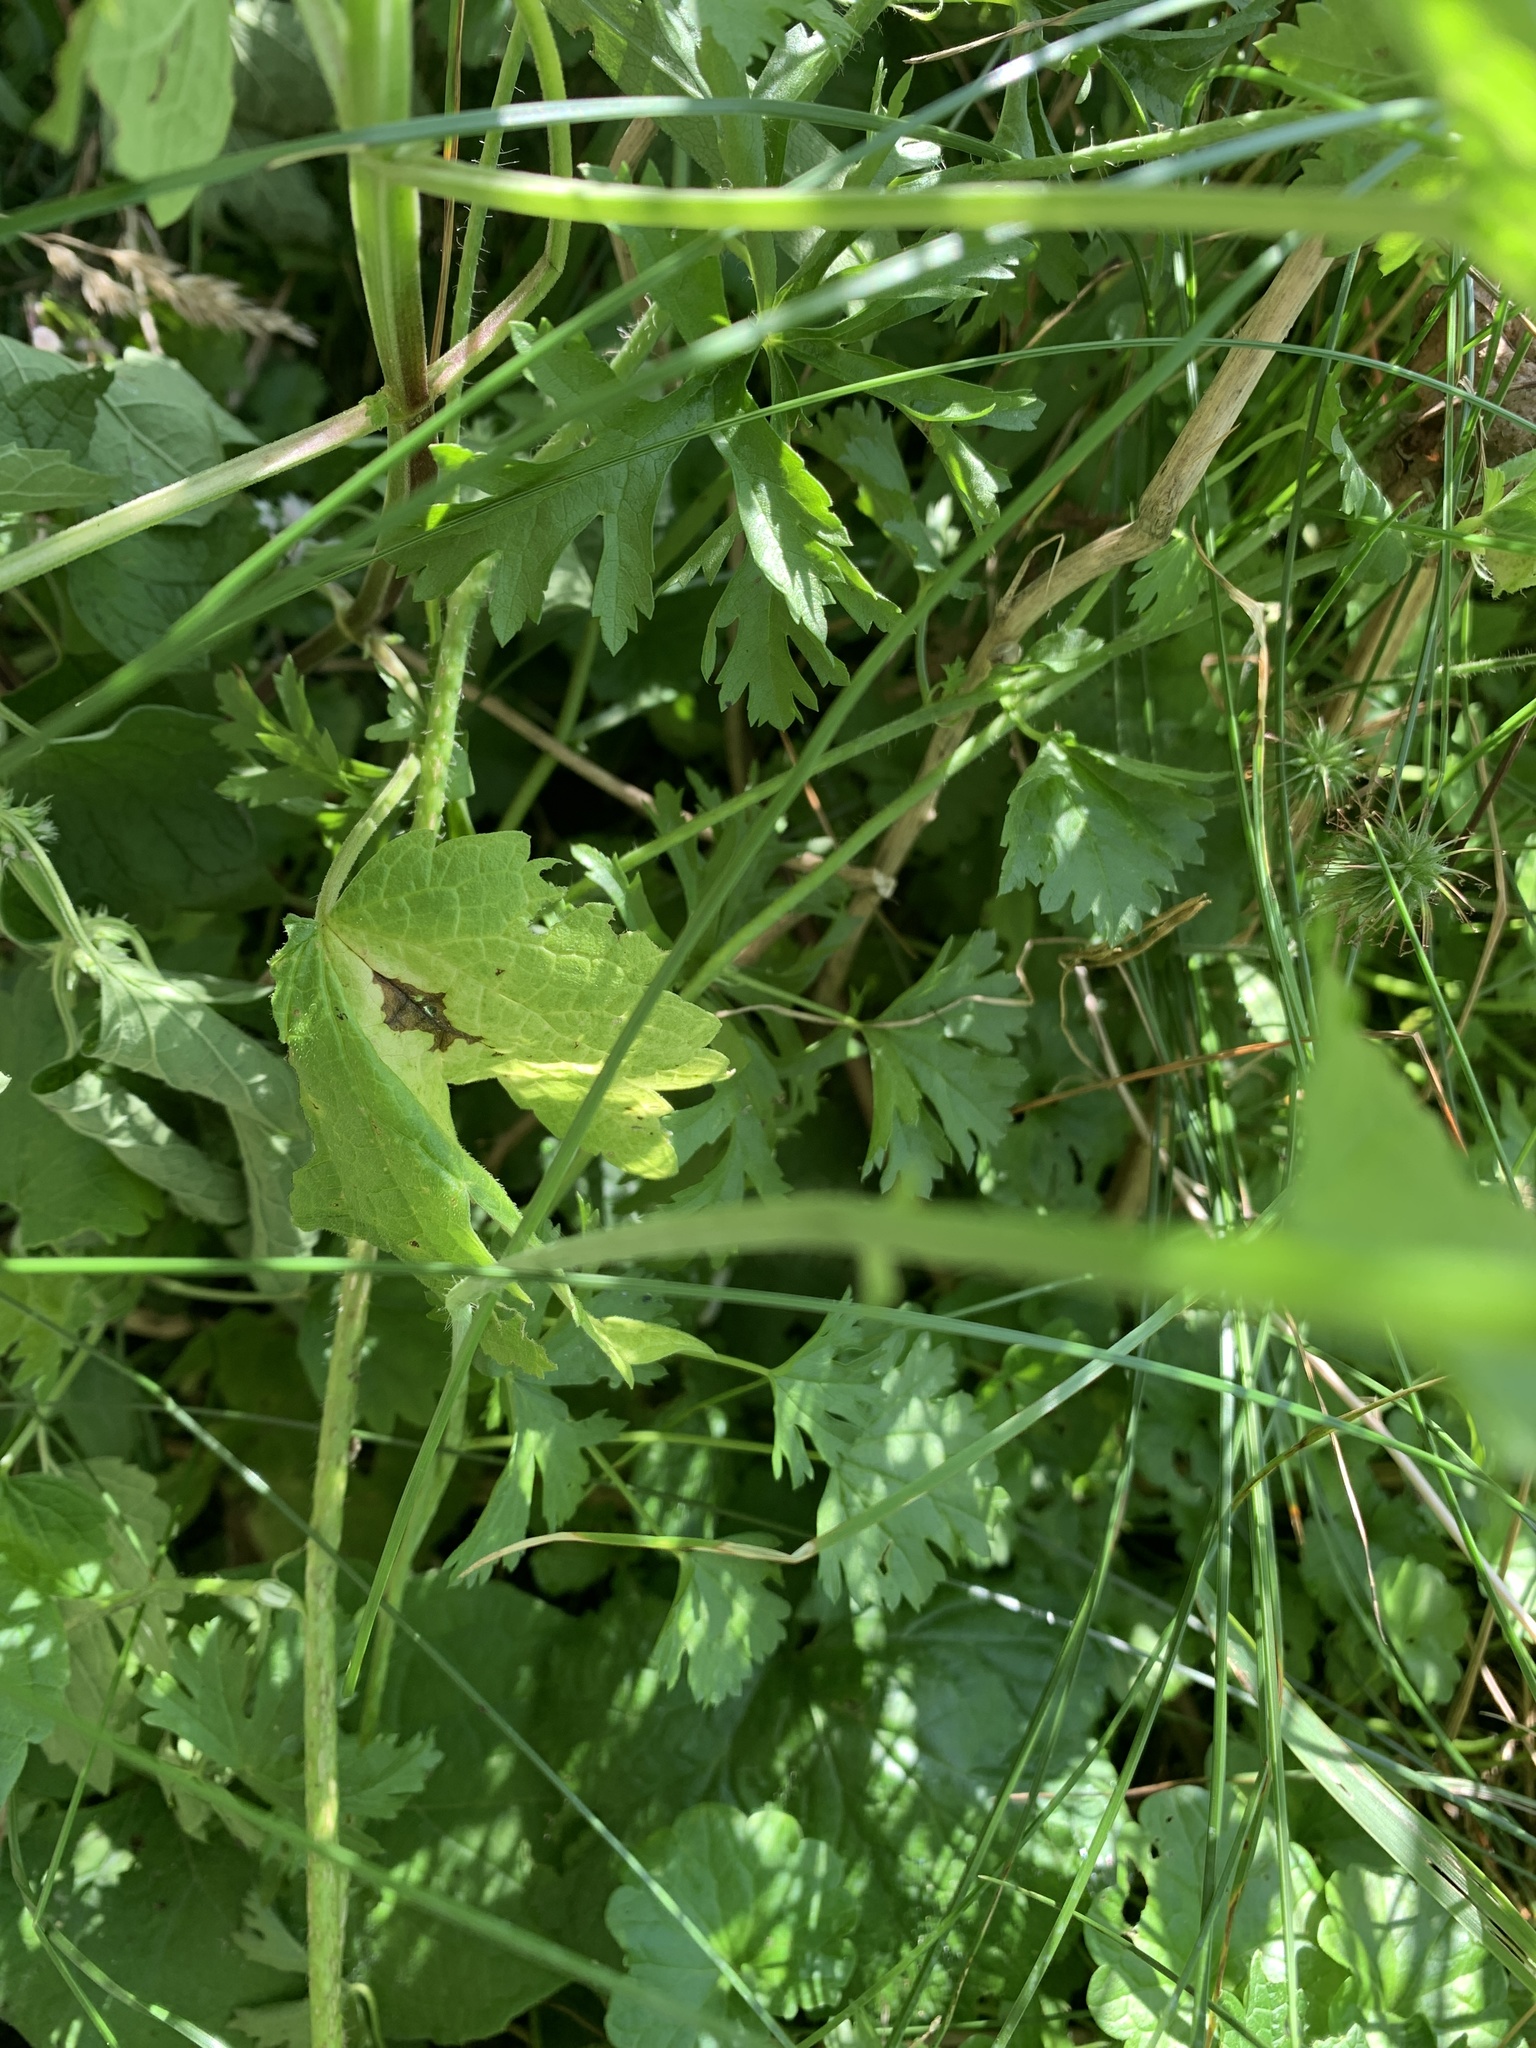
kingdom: Plantae
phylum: Tracheophyta
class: Magnoliopsida
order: Malvales
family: Malvaceae
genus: Malva
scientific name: Malva moschata
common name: Musk mallow
